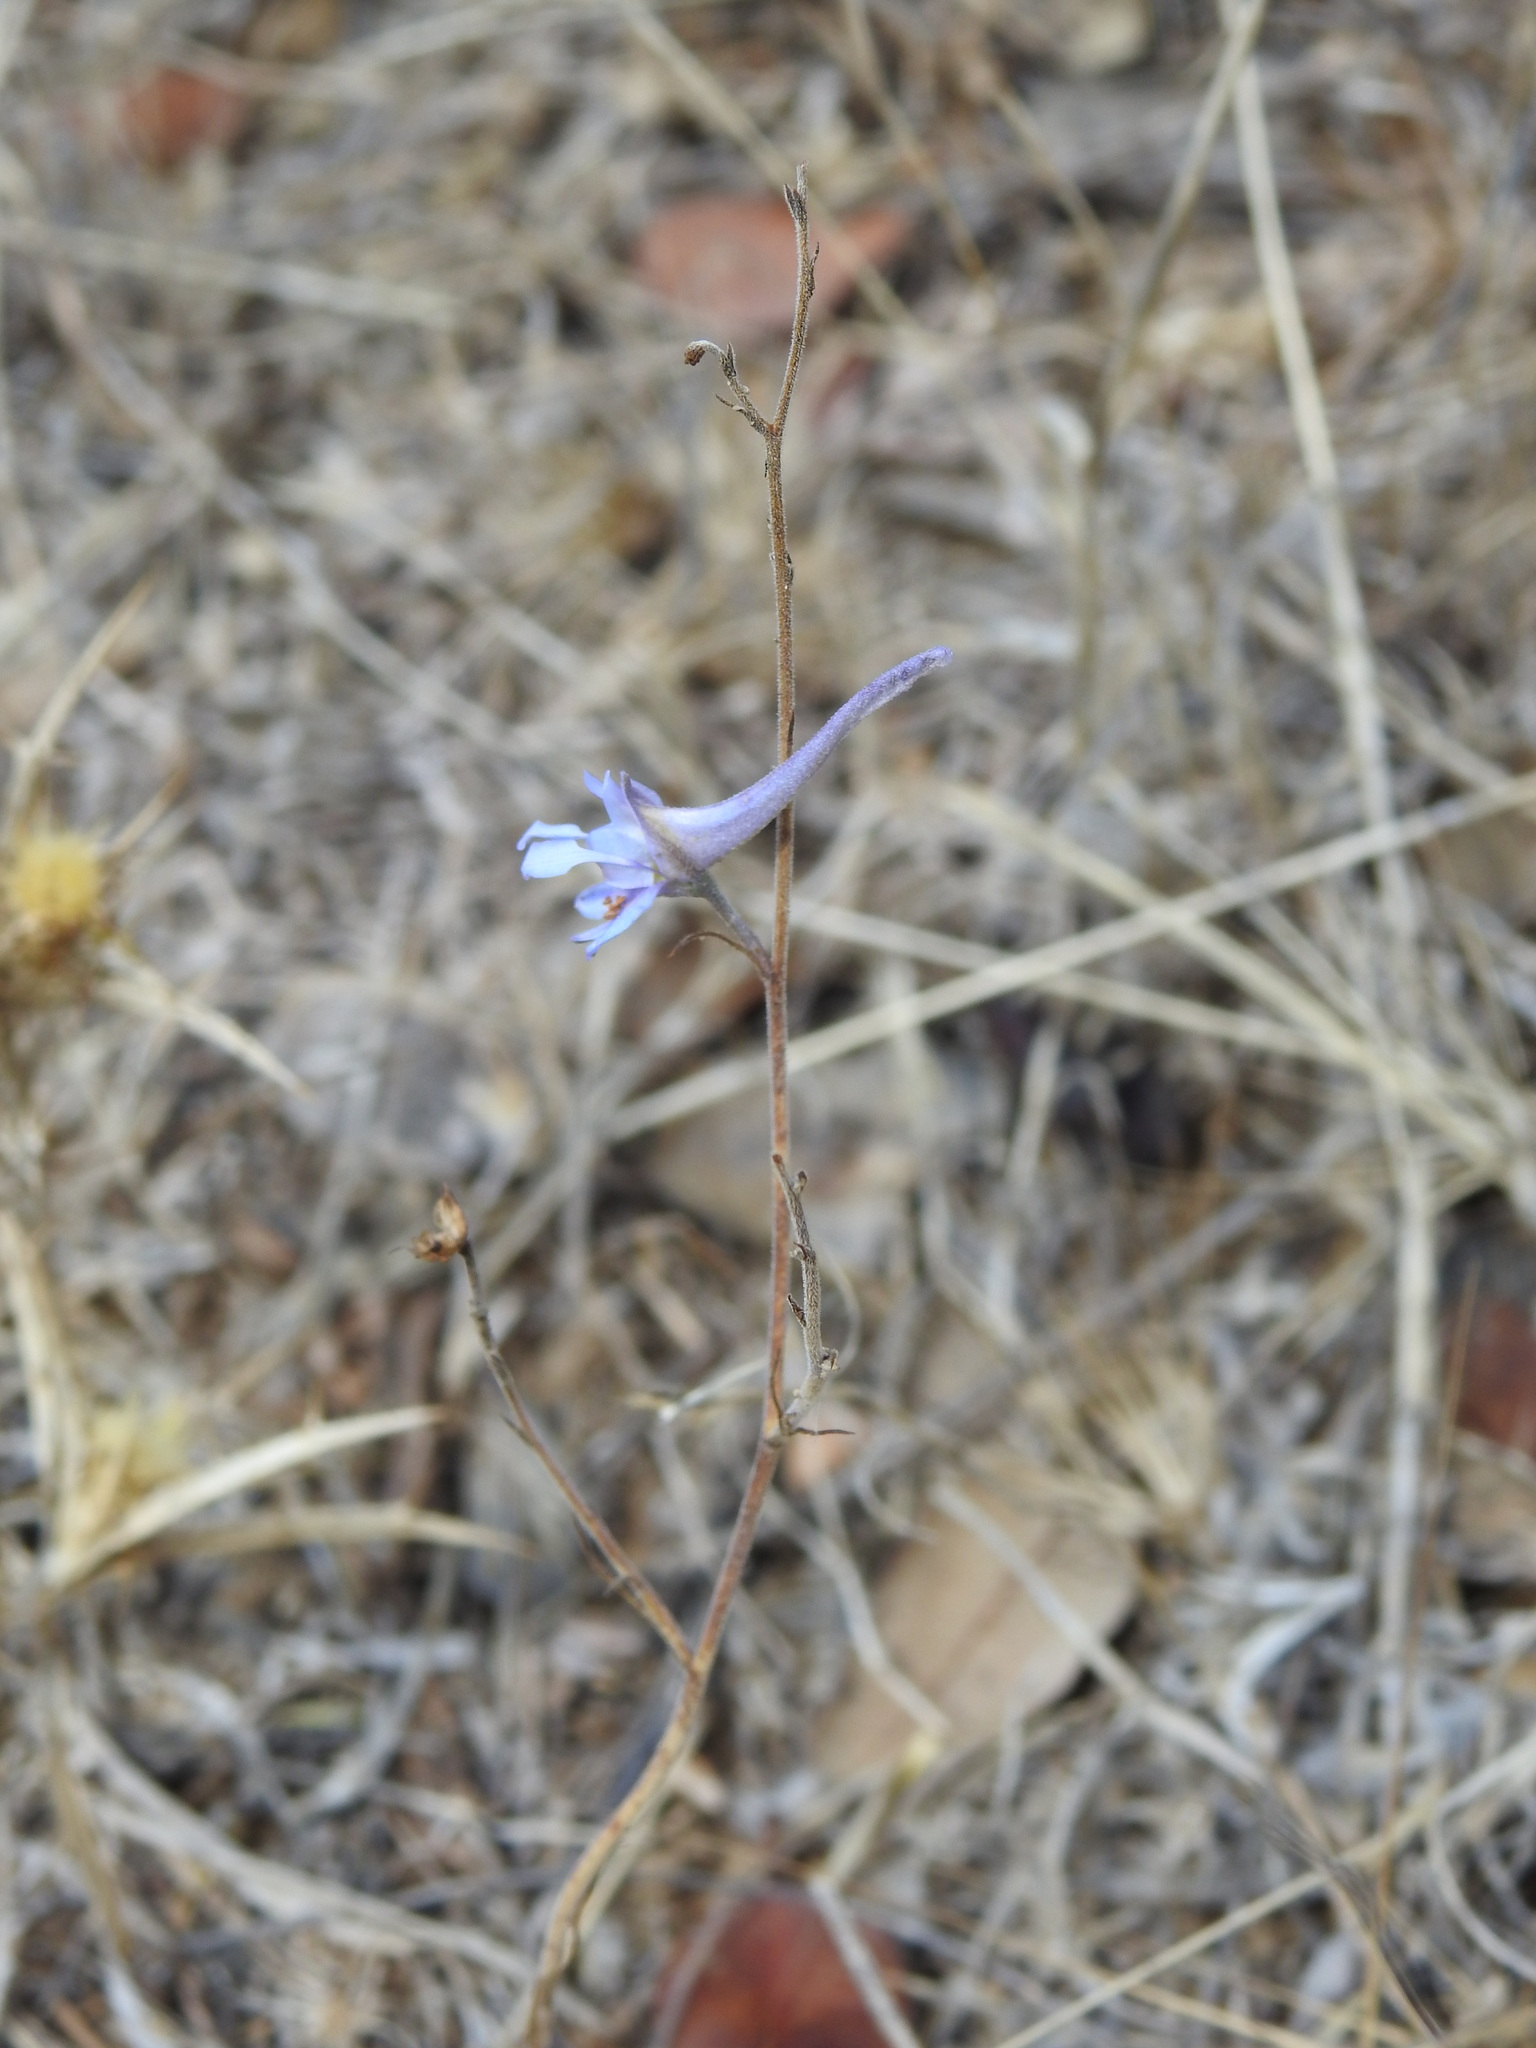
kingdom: Plantae
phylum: Tracheophyta
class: Magnoliopsida
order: Ranunculales
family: Ranunculaceae
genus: Delphinium
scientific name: Delphinium gracile
